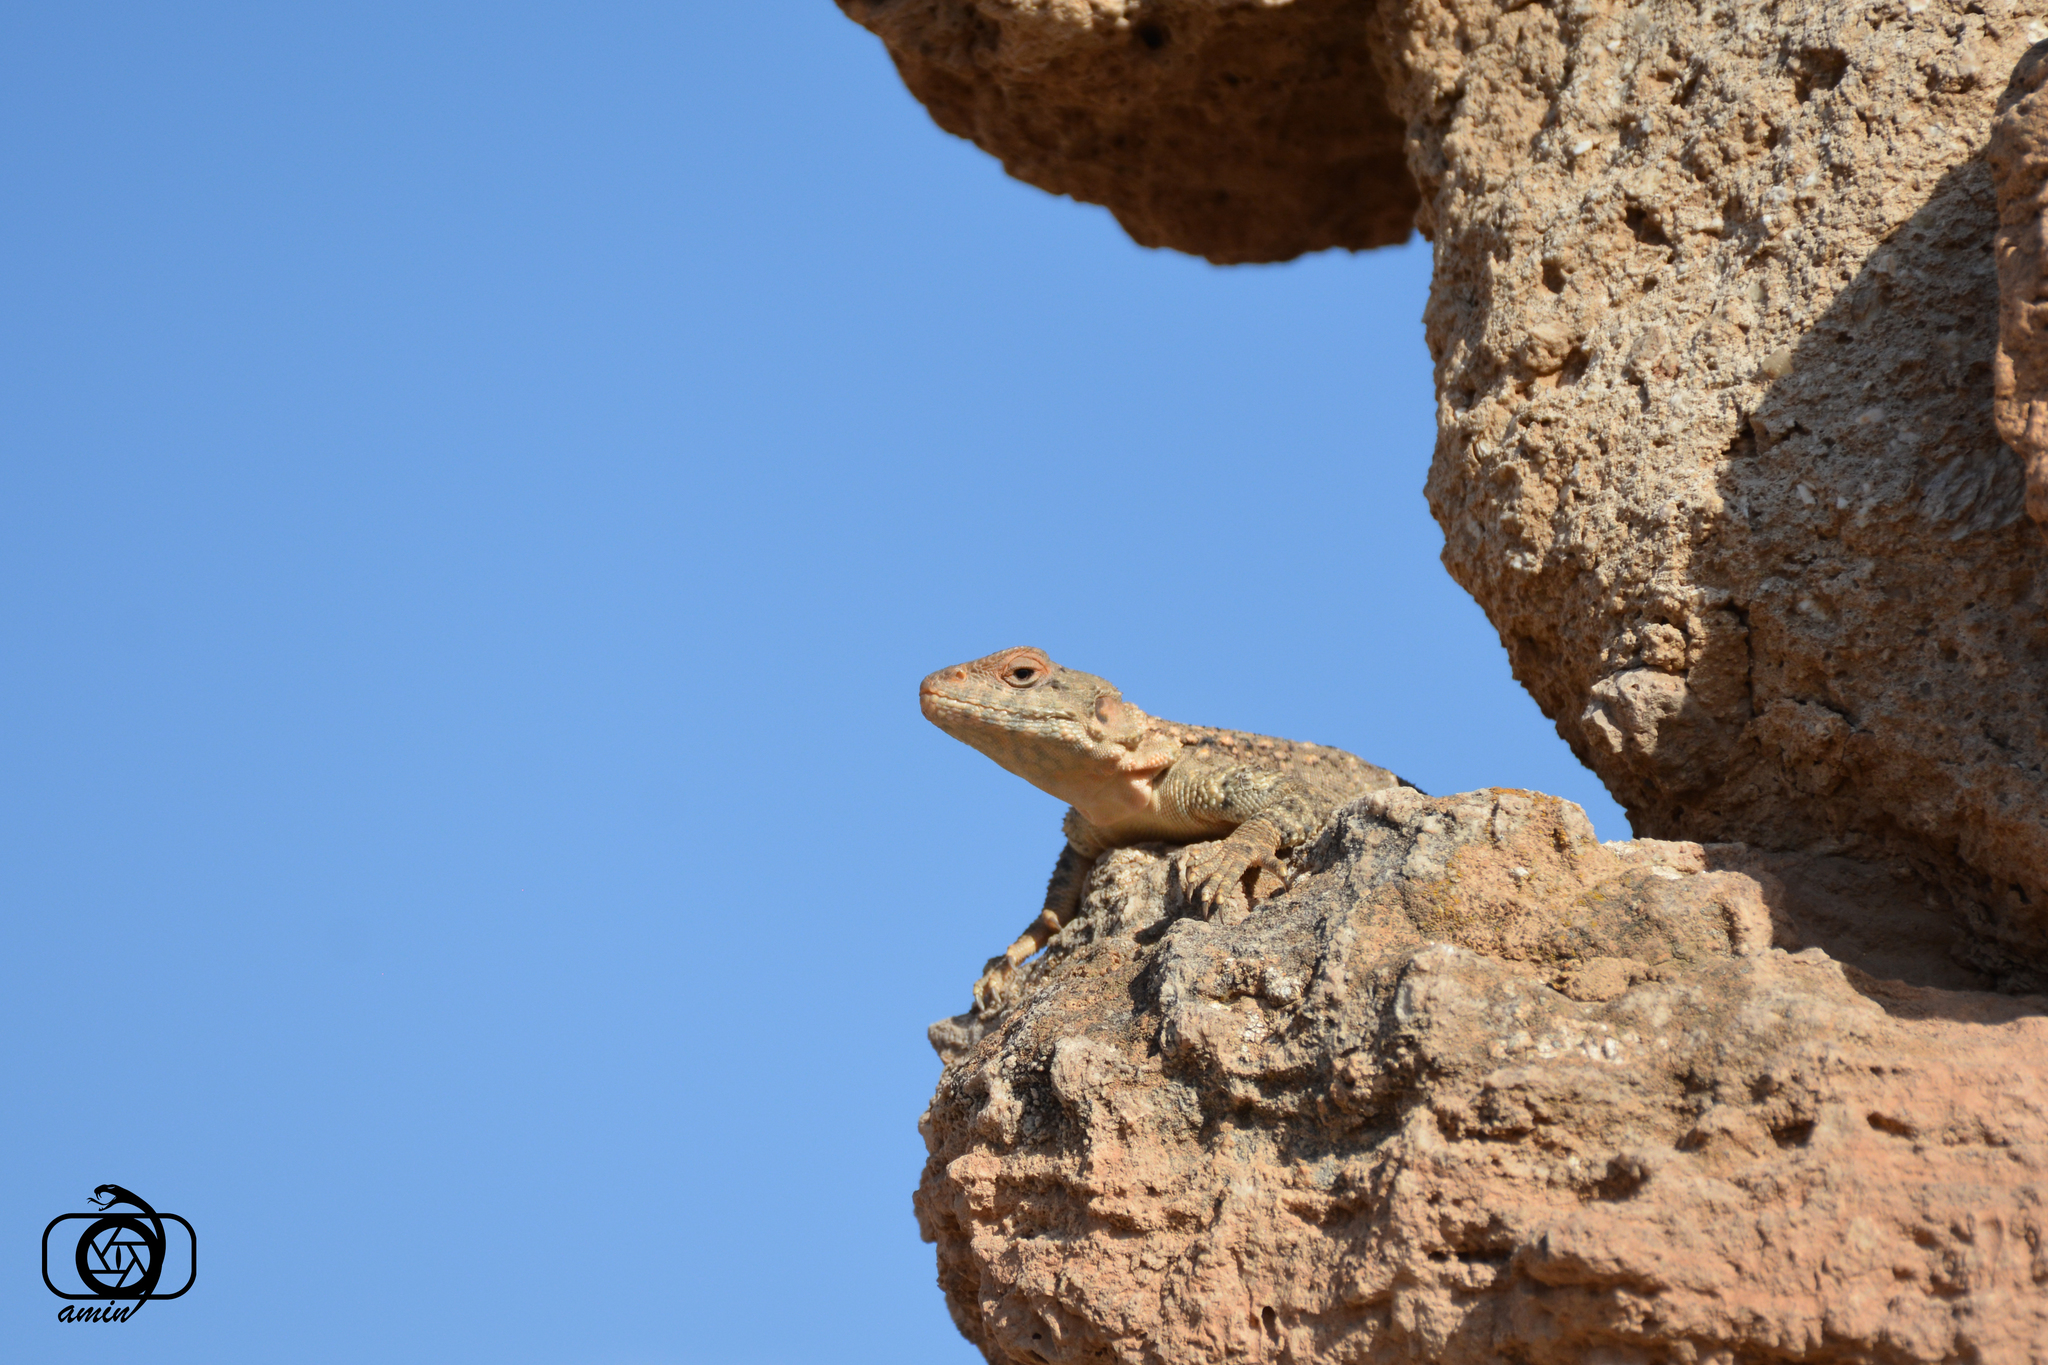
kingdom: Animalia
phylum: Chordata
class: Squamata
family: Agamidae
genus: Paralaudakia
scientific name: Paralaudakia caucasia
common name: Caucasian agama
